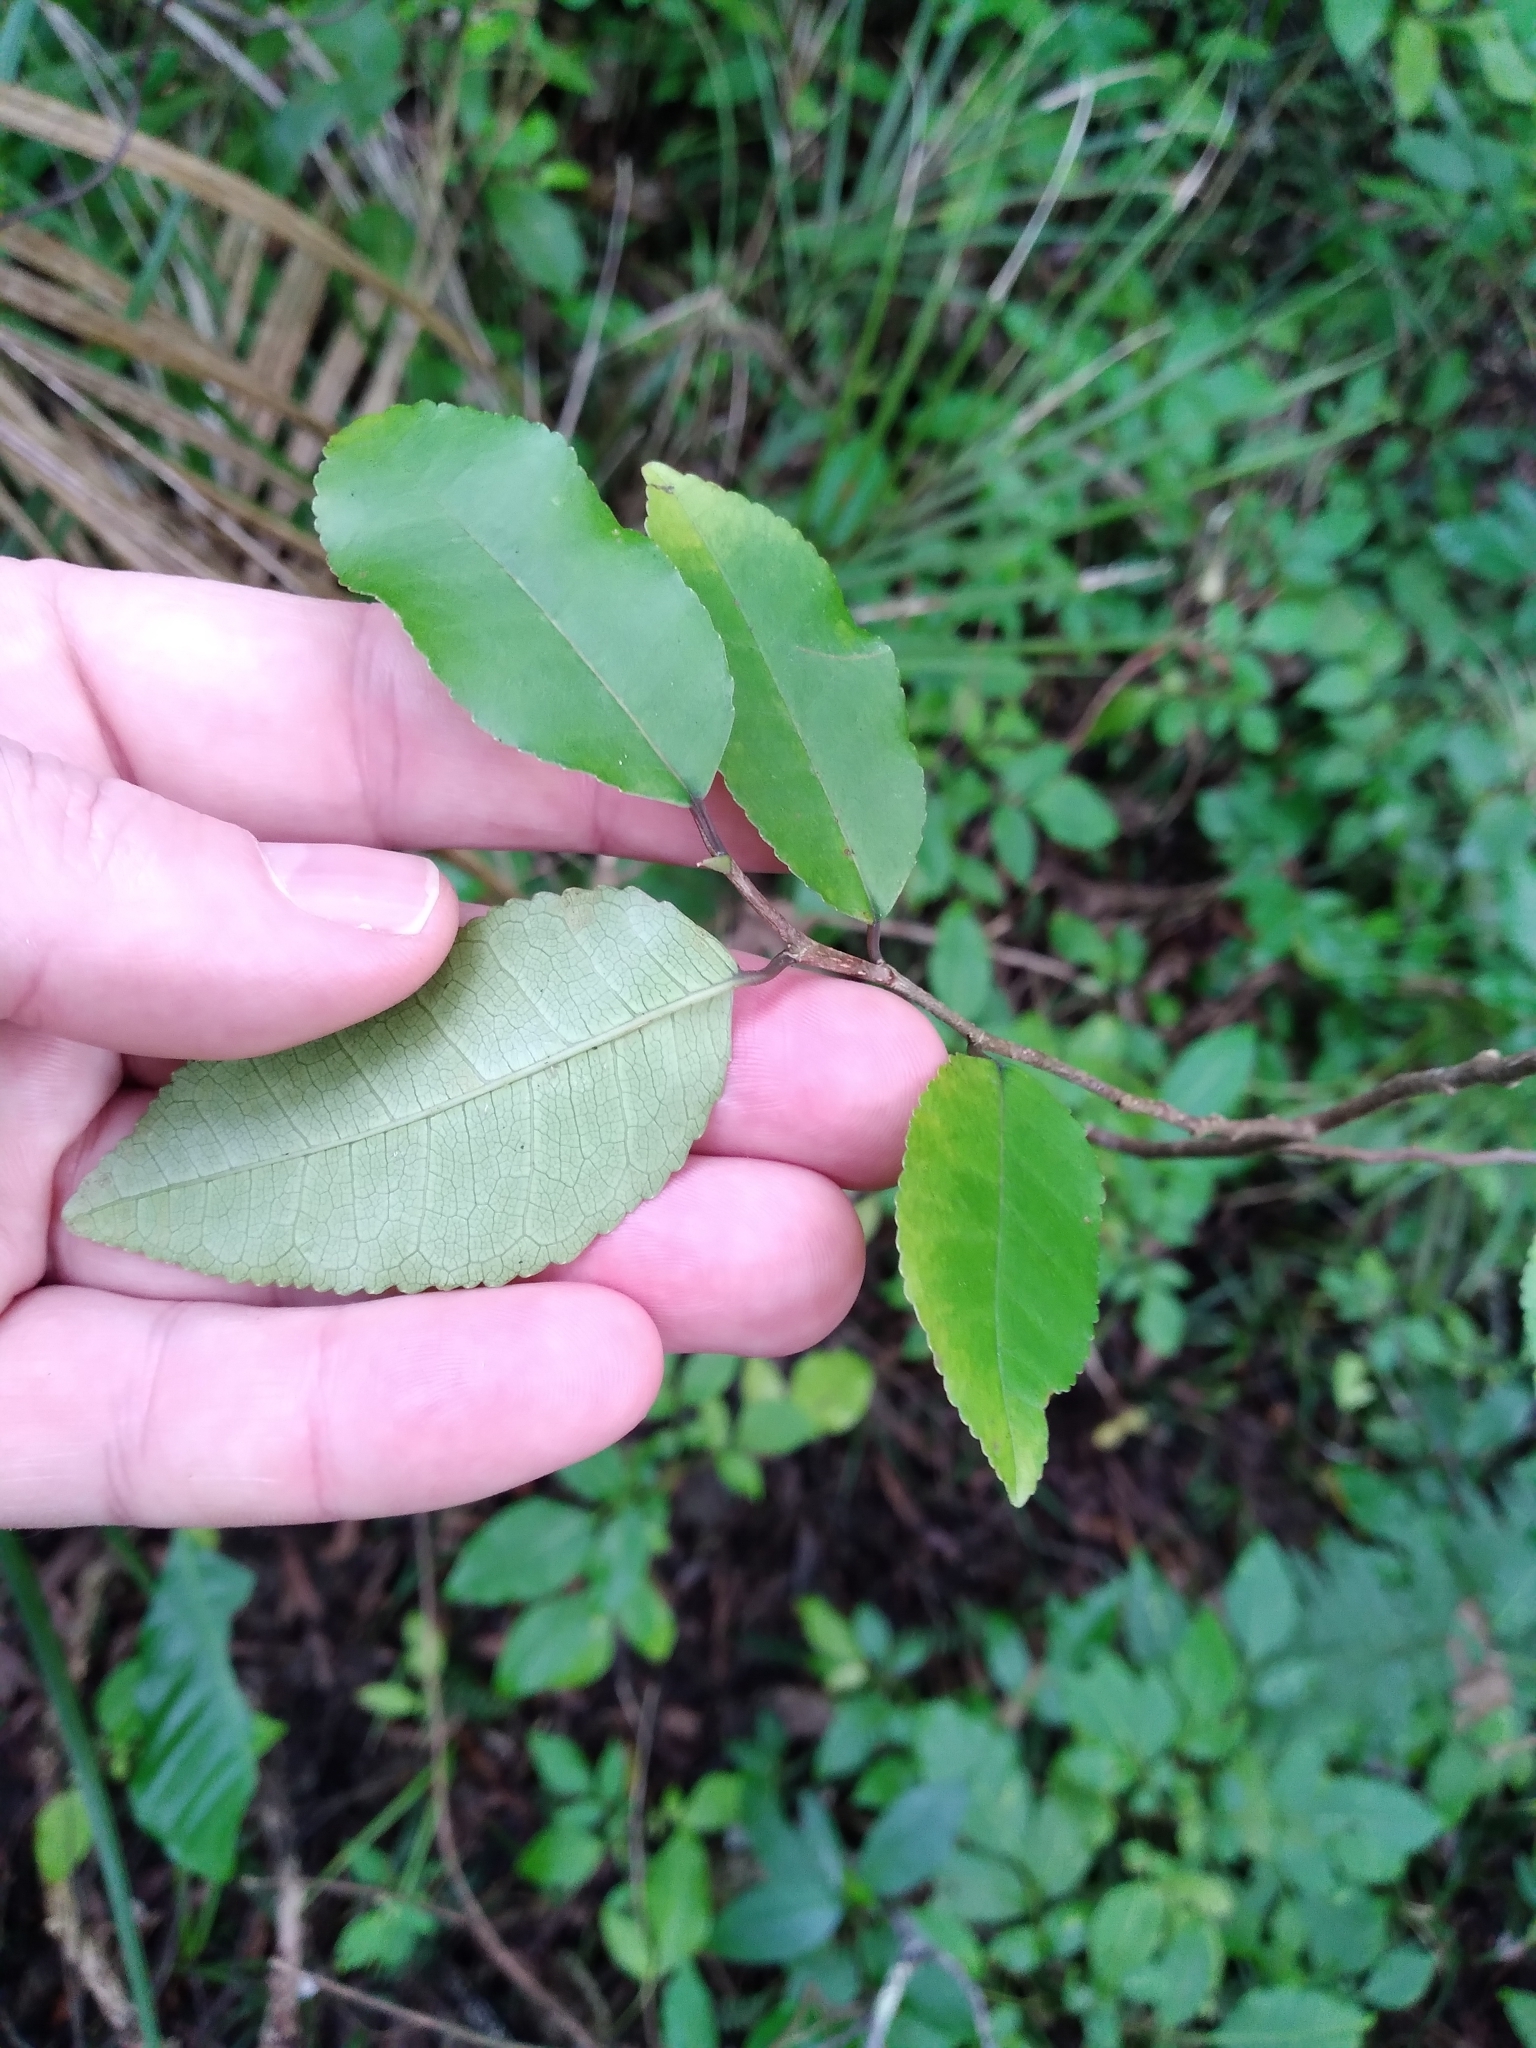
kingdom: Plantae
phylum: Tracheophyta
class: Magnoliopsida
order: Rosales
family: Moraceae
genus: Paratrophis
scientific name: Paratrophis banksii
